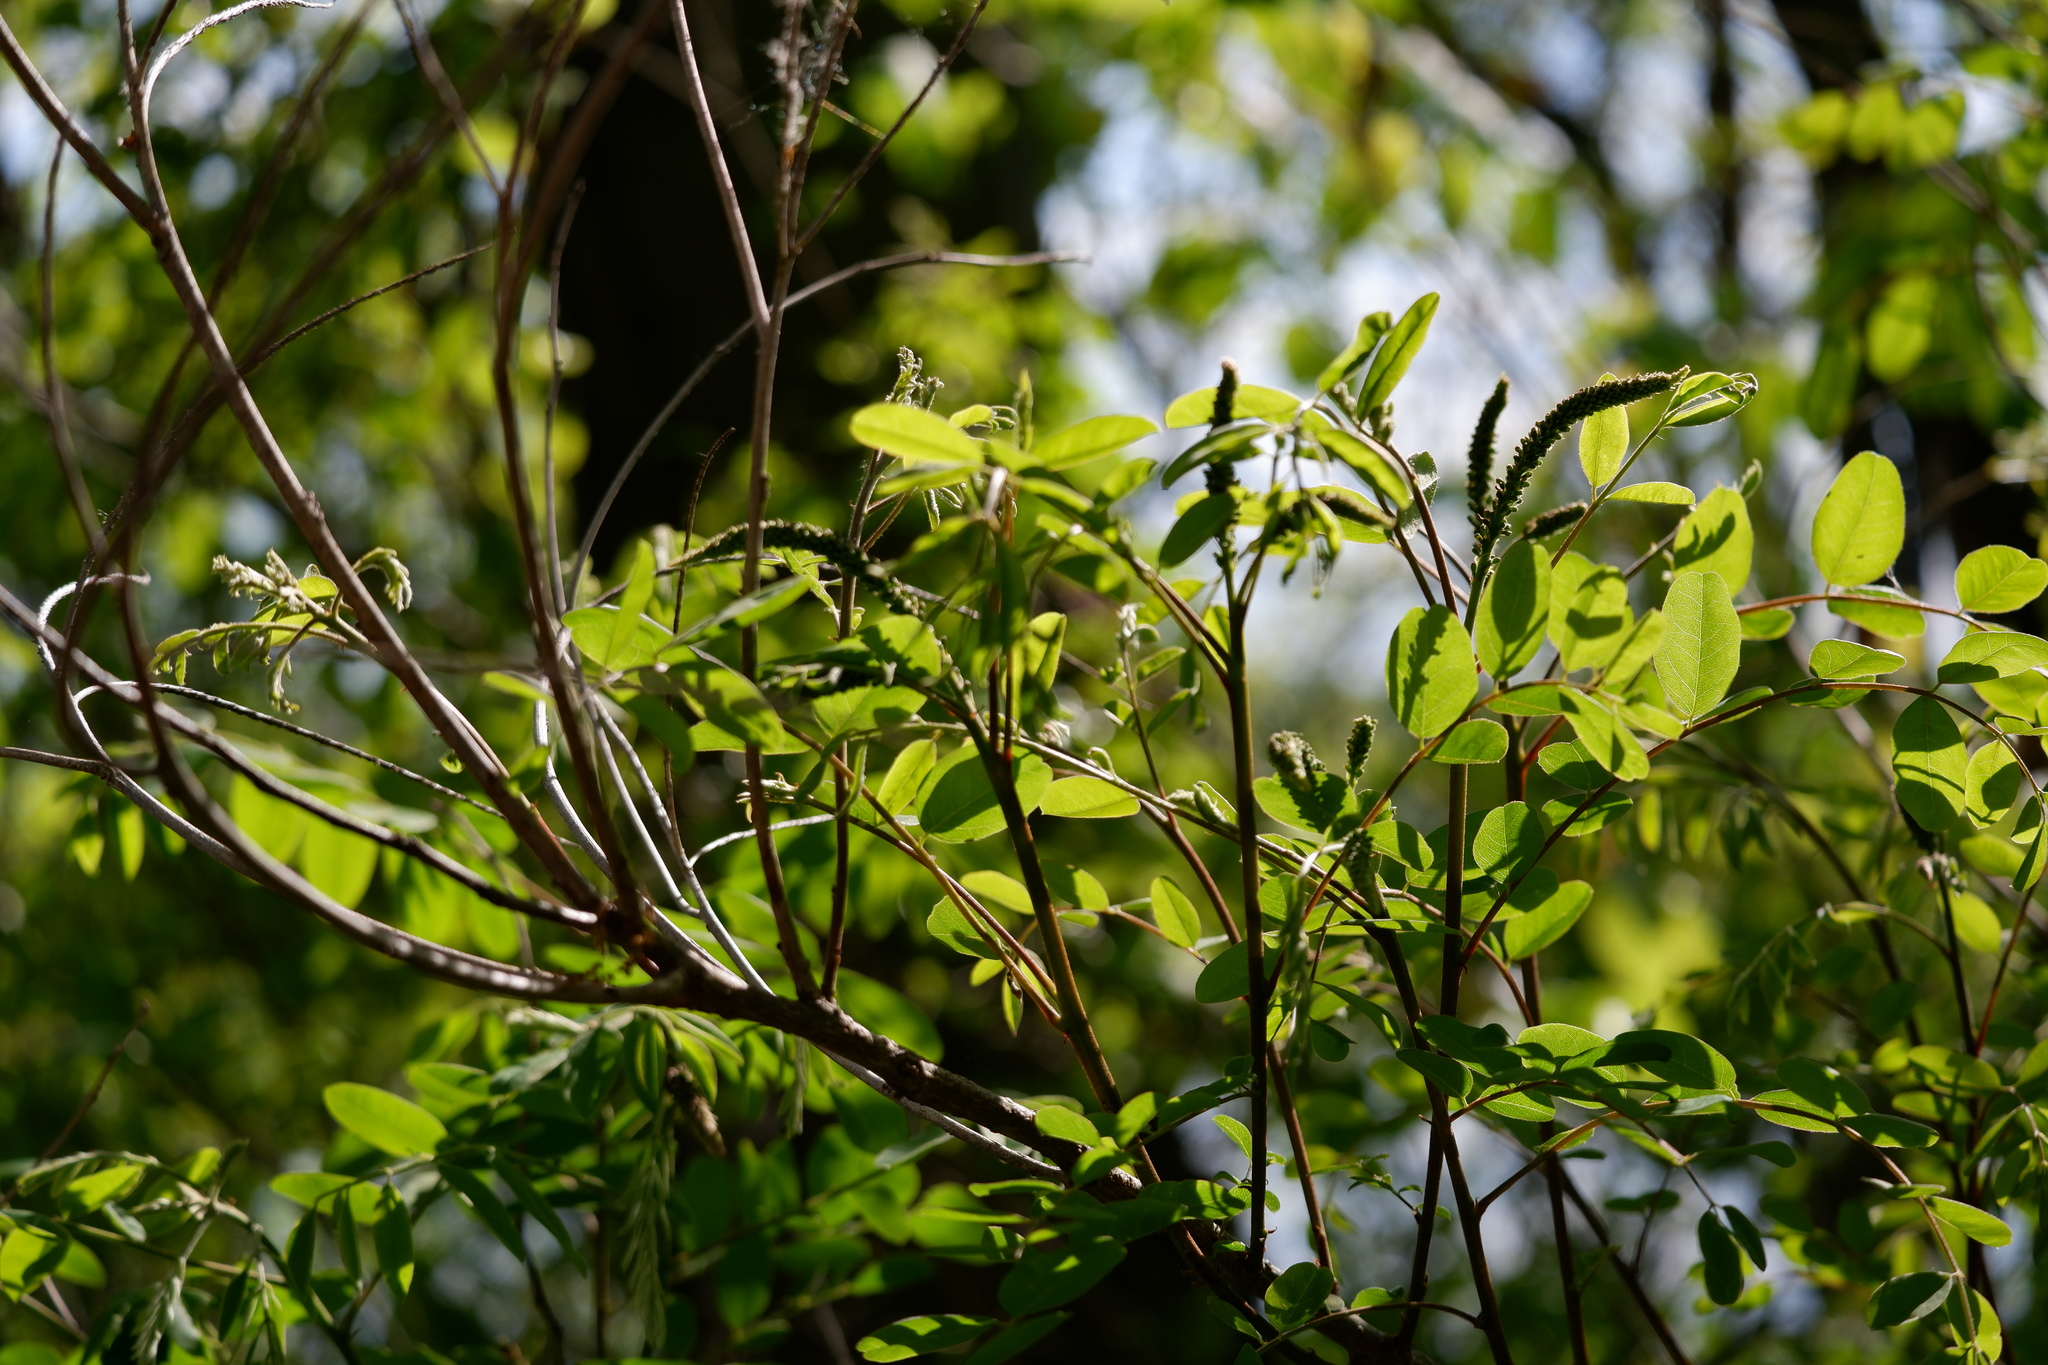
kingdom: Plantae
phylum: Tracheophyta
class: Magnoliopsida
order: Fabales
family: Fabaceae
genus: Amorpha
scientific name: Amorpha fruticosa
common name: False indigo
